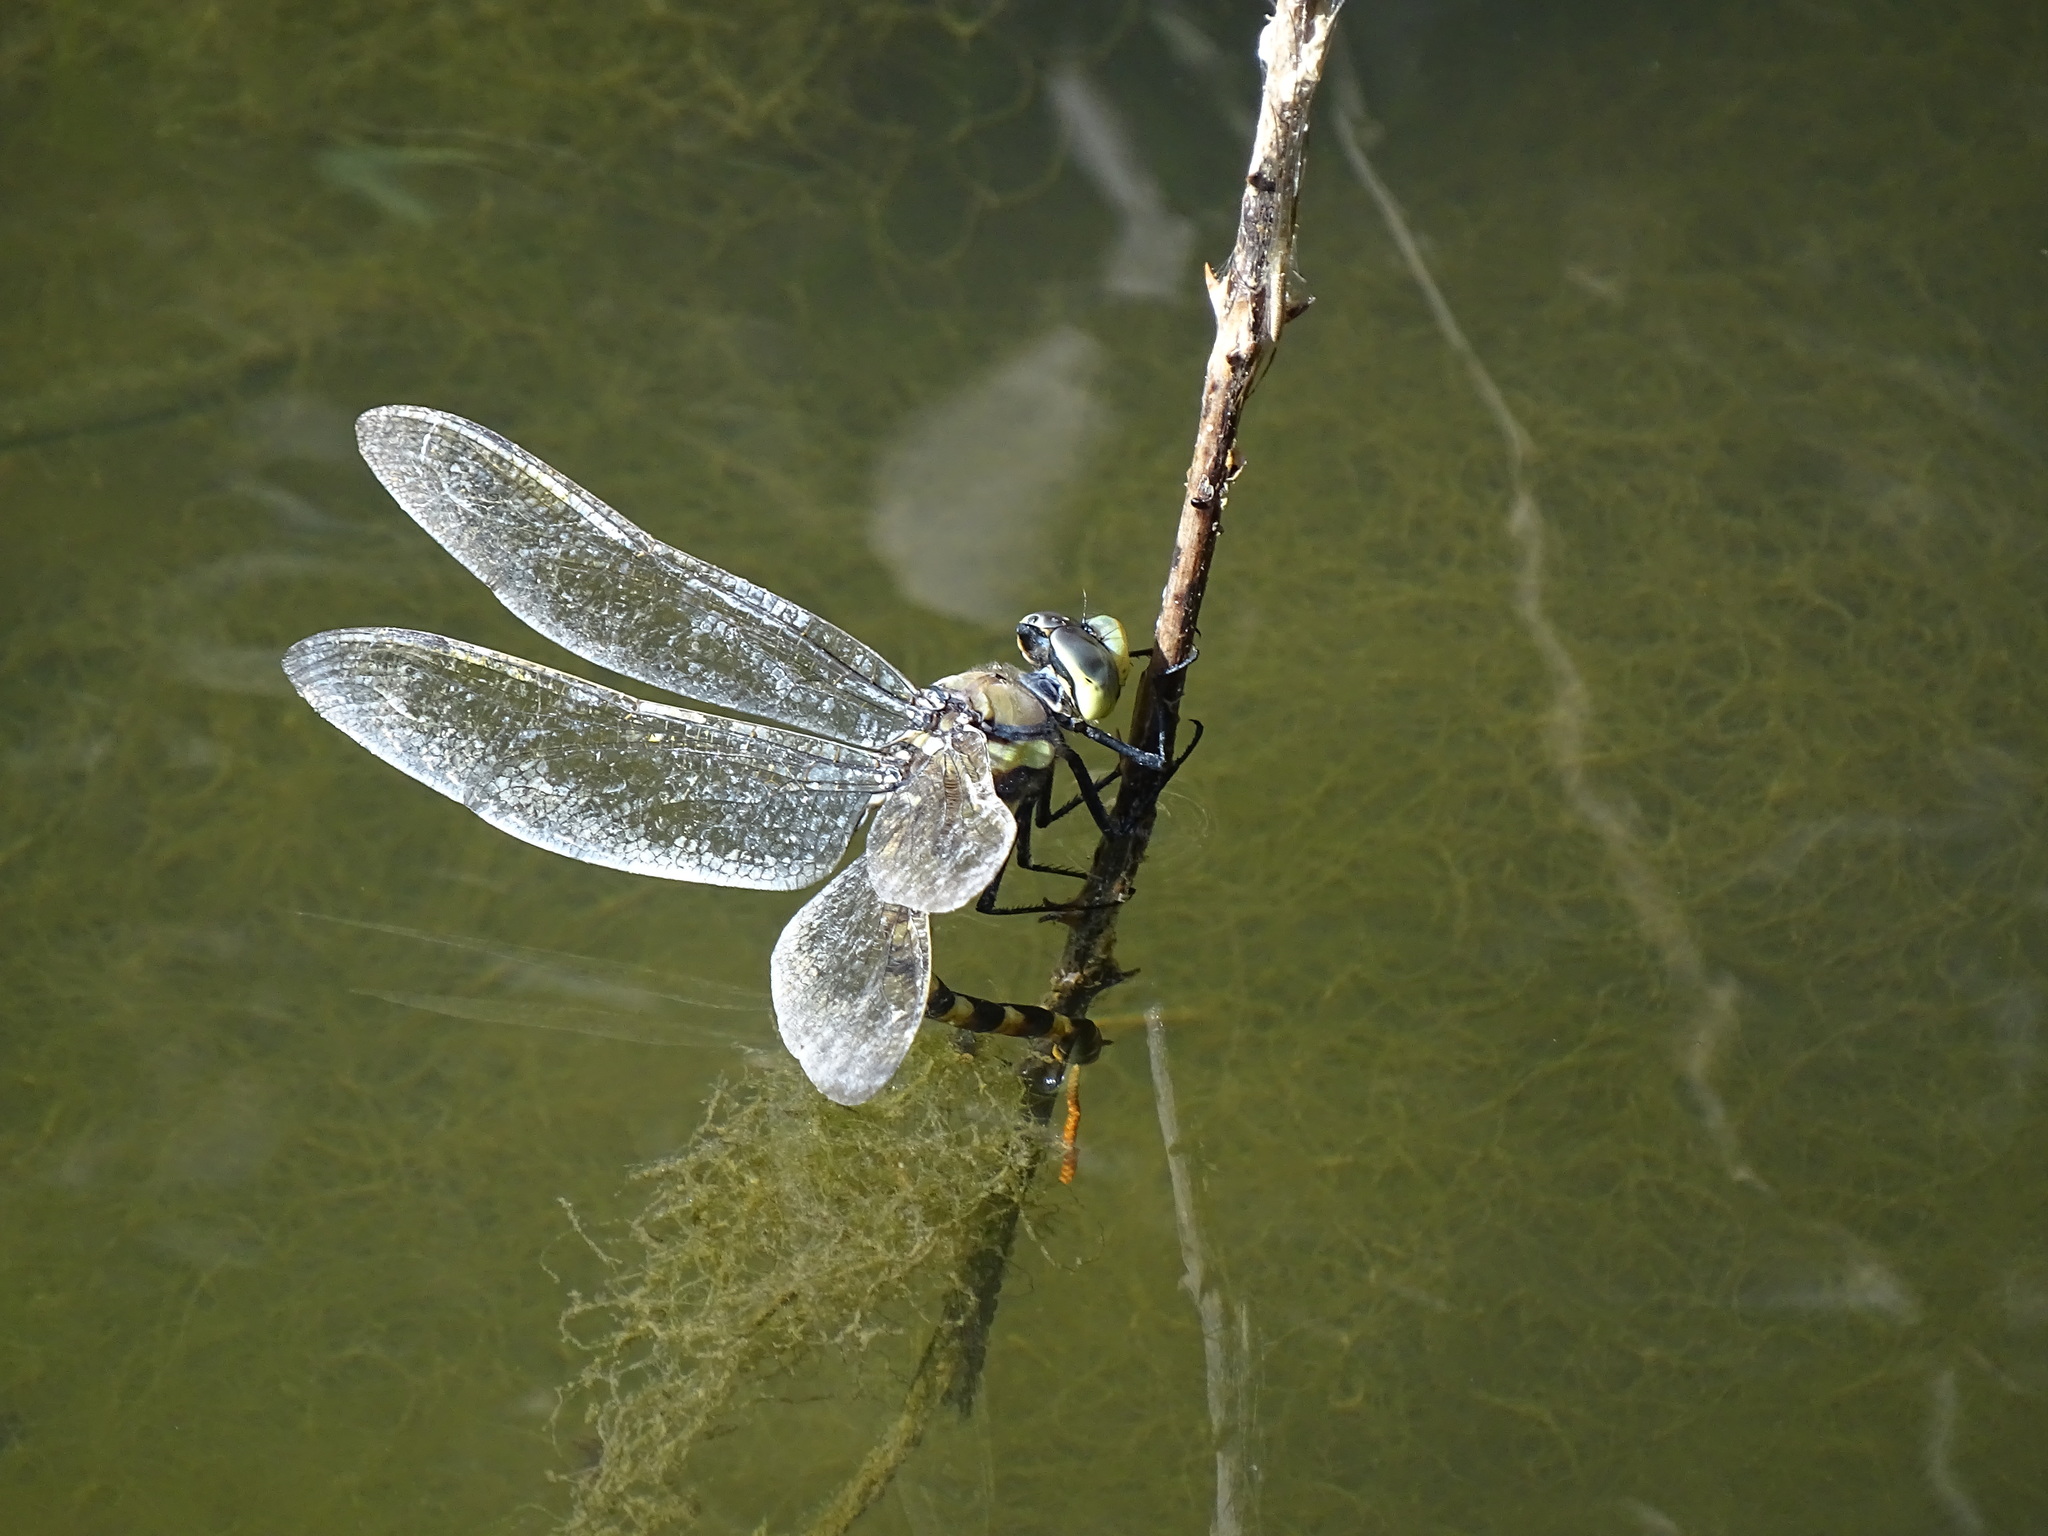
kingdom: Animalia
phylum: Arthropoda
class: Insecta
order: Odonata
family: Aeshnidae
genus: Anax
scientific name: Anax immaculifrons
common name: Magnificent emperor
